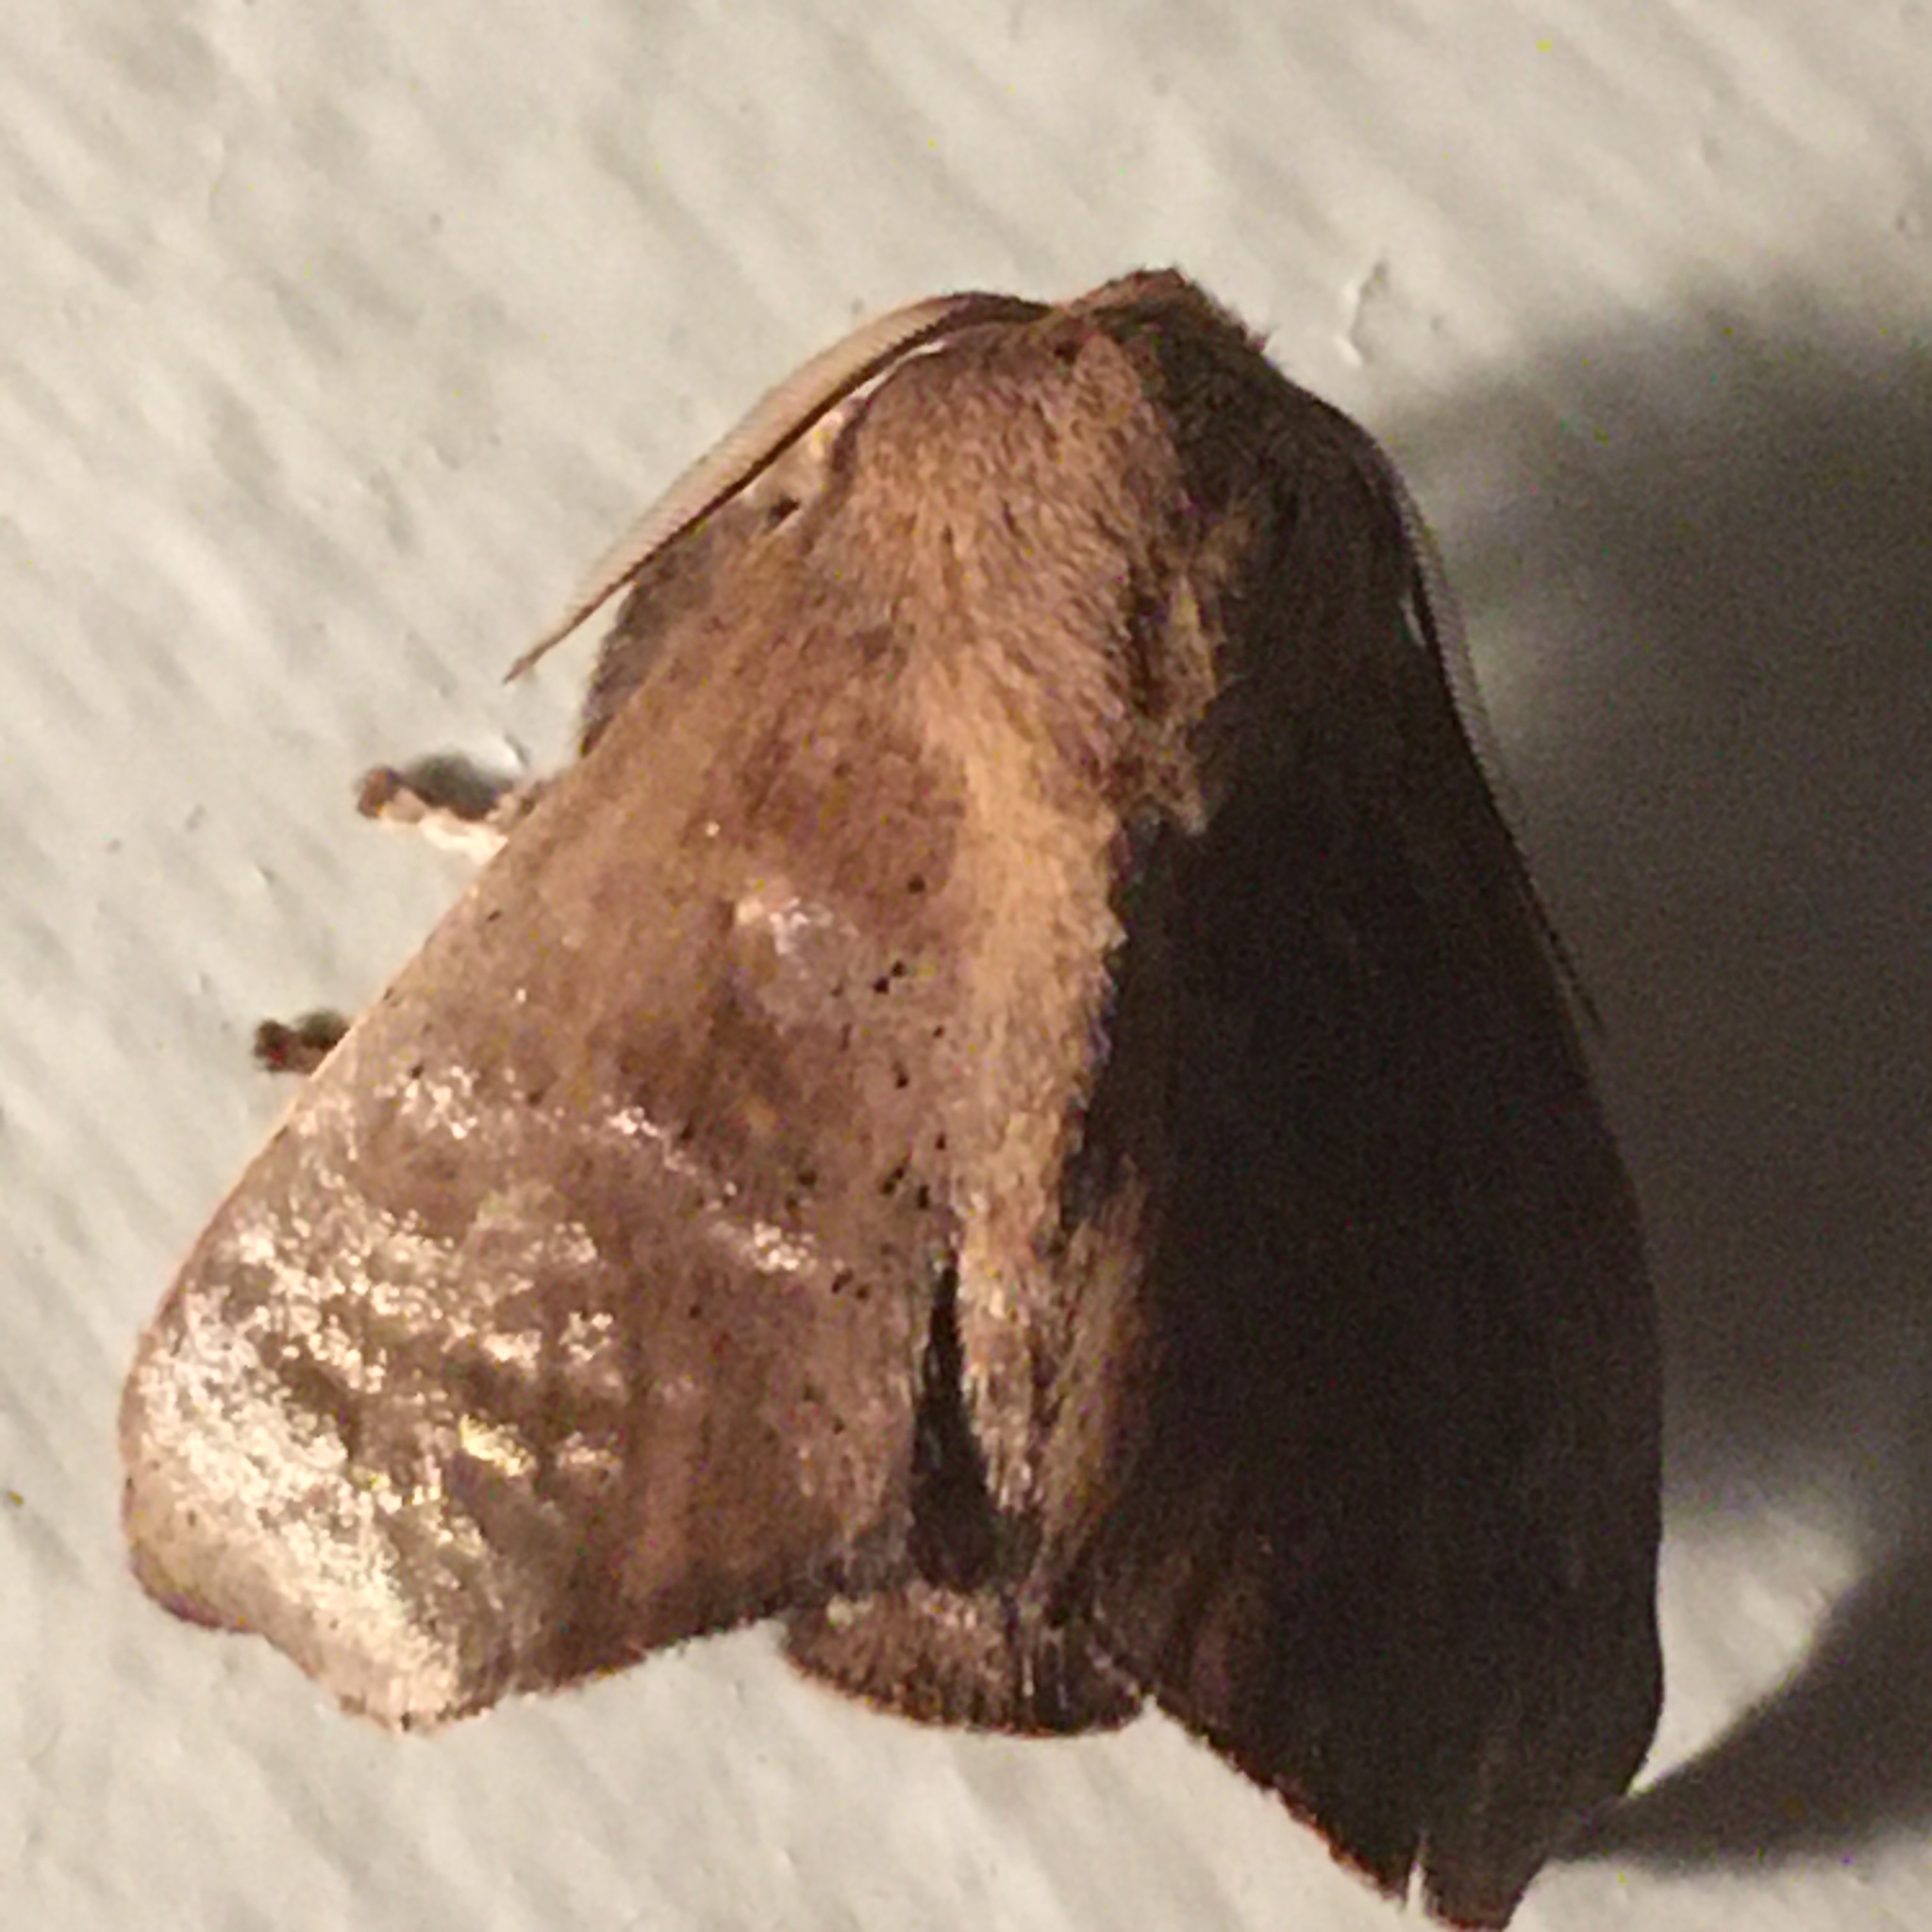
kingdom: Animalia
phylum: Arthropoda
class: Insecta
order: Lepidoptera
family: Limacodidae
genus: Natada
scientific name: Natada michorta
